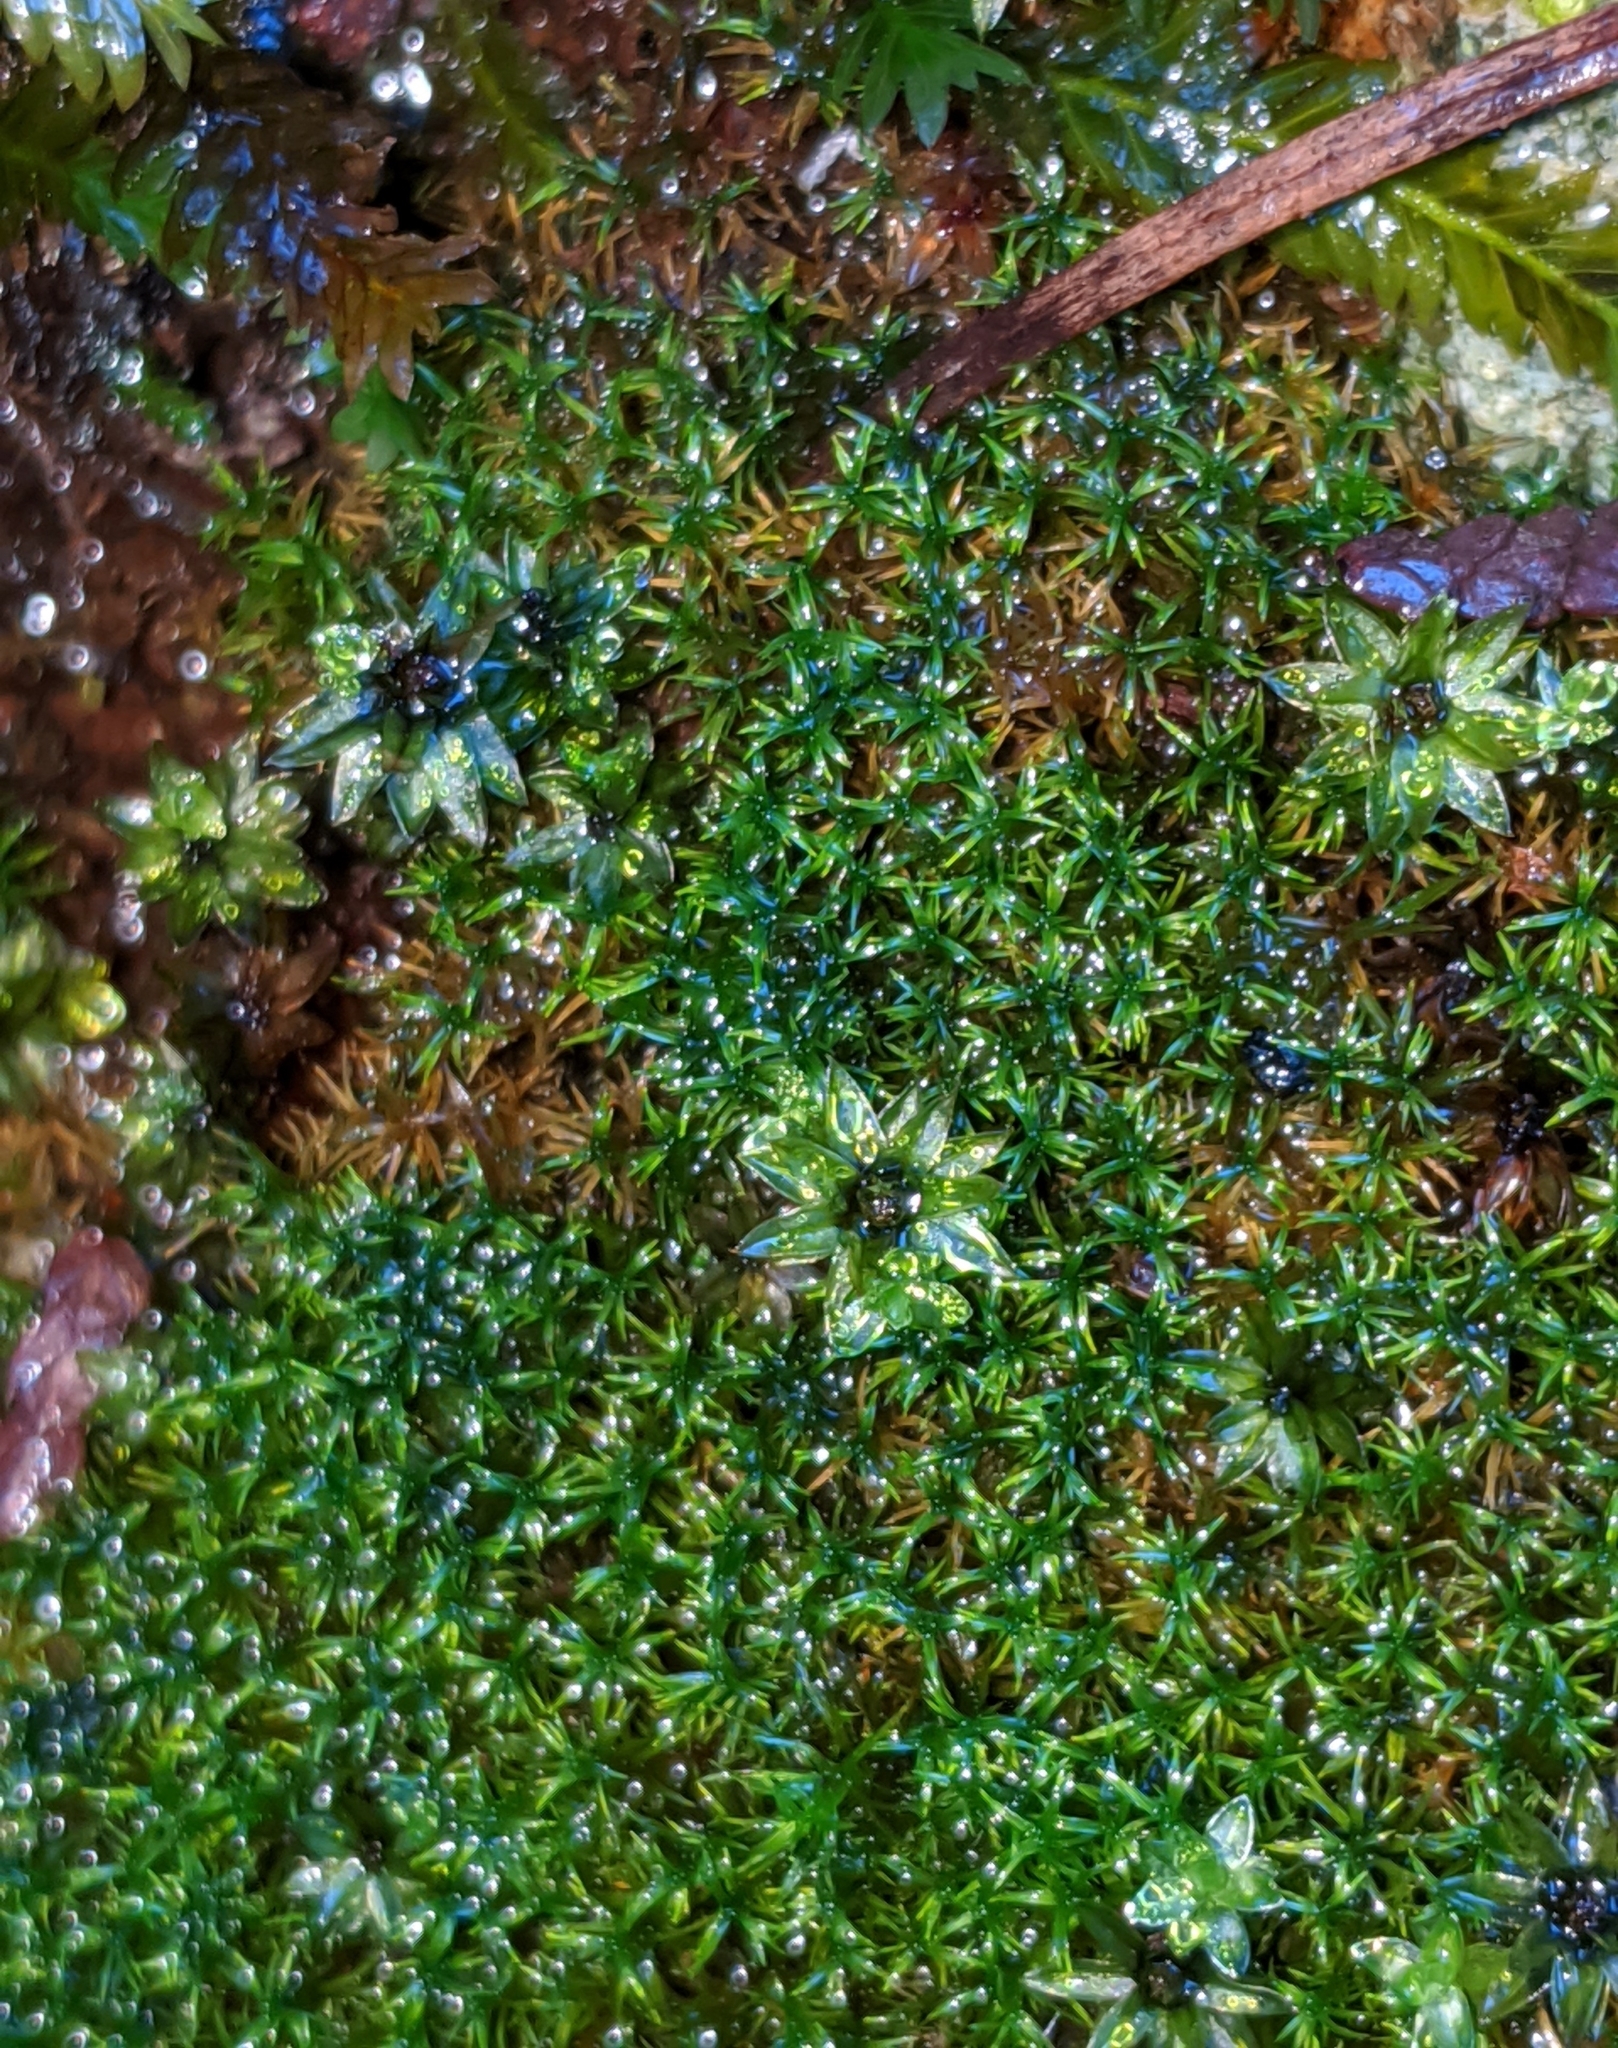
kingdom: Plantae
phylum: Bryophyta
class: Bryopsida
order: Dicranales
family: Aongstroemiaceae
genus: Dichodontium
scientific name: Dichodontium pellucidum
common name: Transparent fork moss
